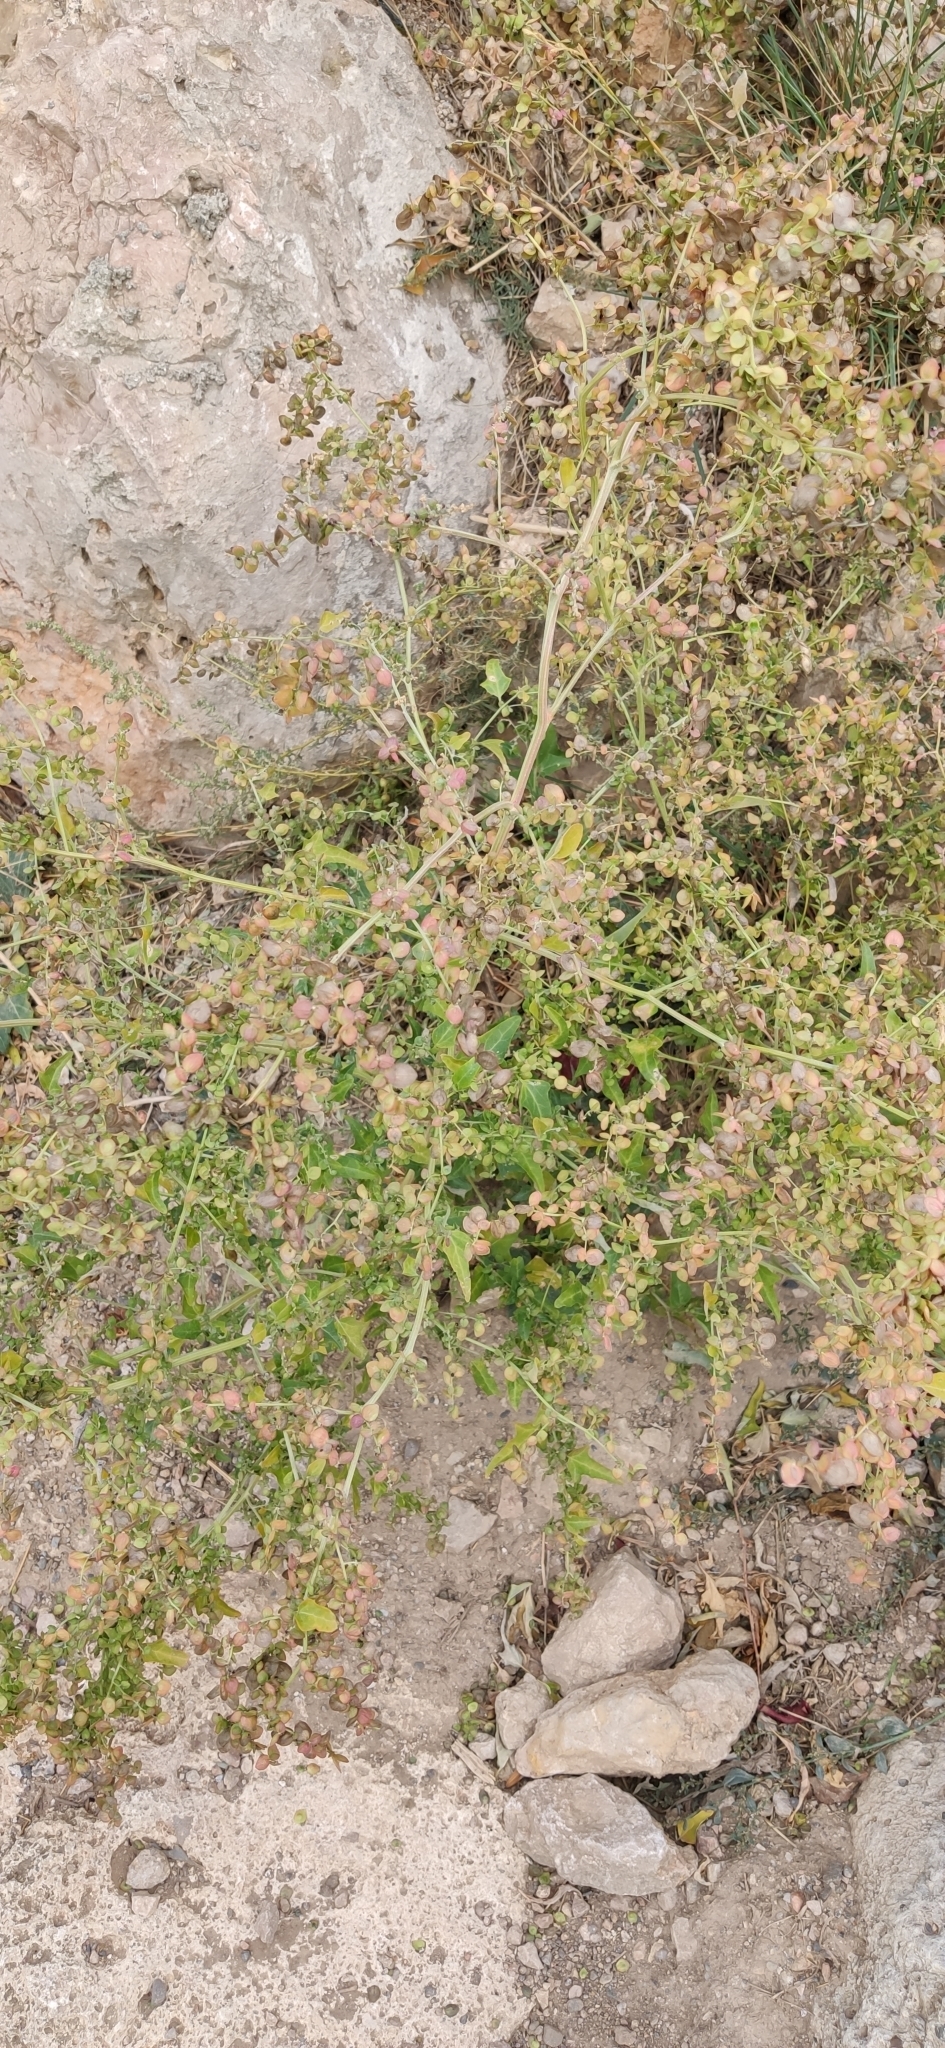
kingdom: Plantae
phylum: Tracheophyta
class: Magnoliopsida
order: Caryophyllales
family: Amaranthaceae
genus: Atriplex
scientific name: Atriplex aucheri
